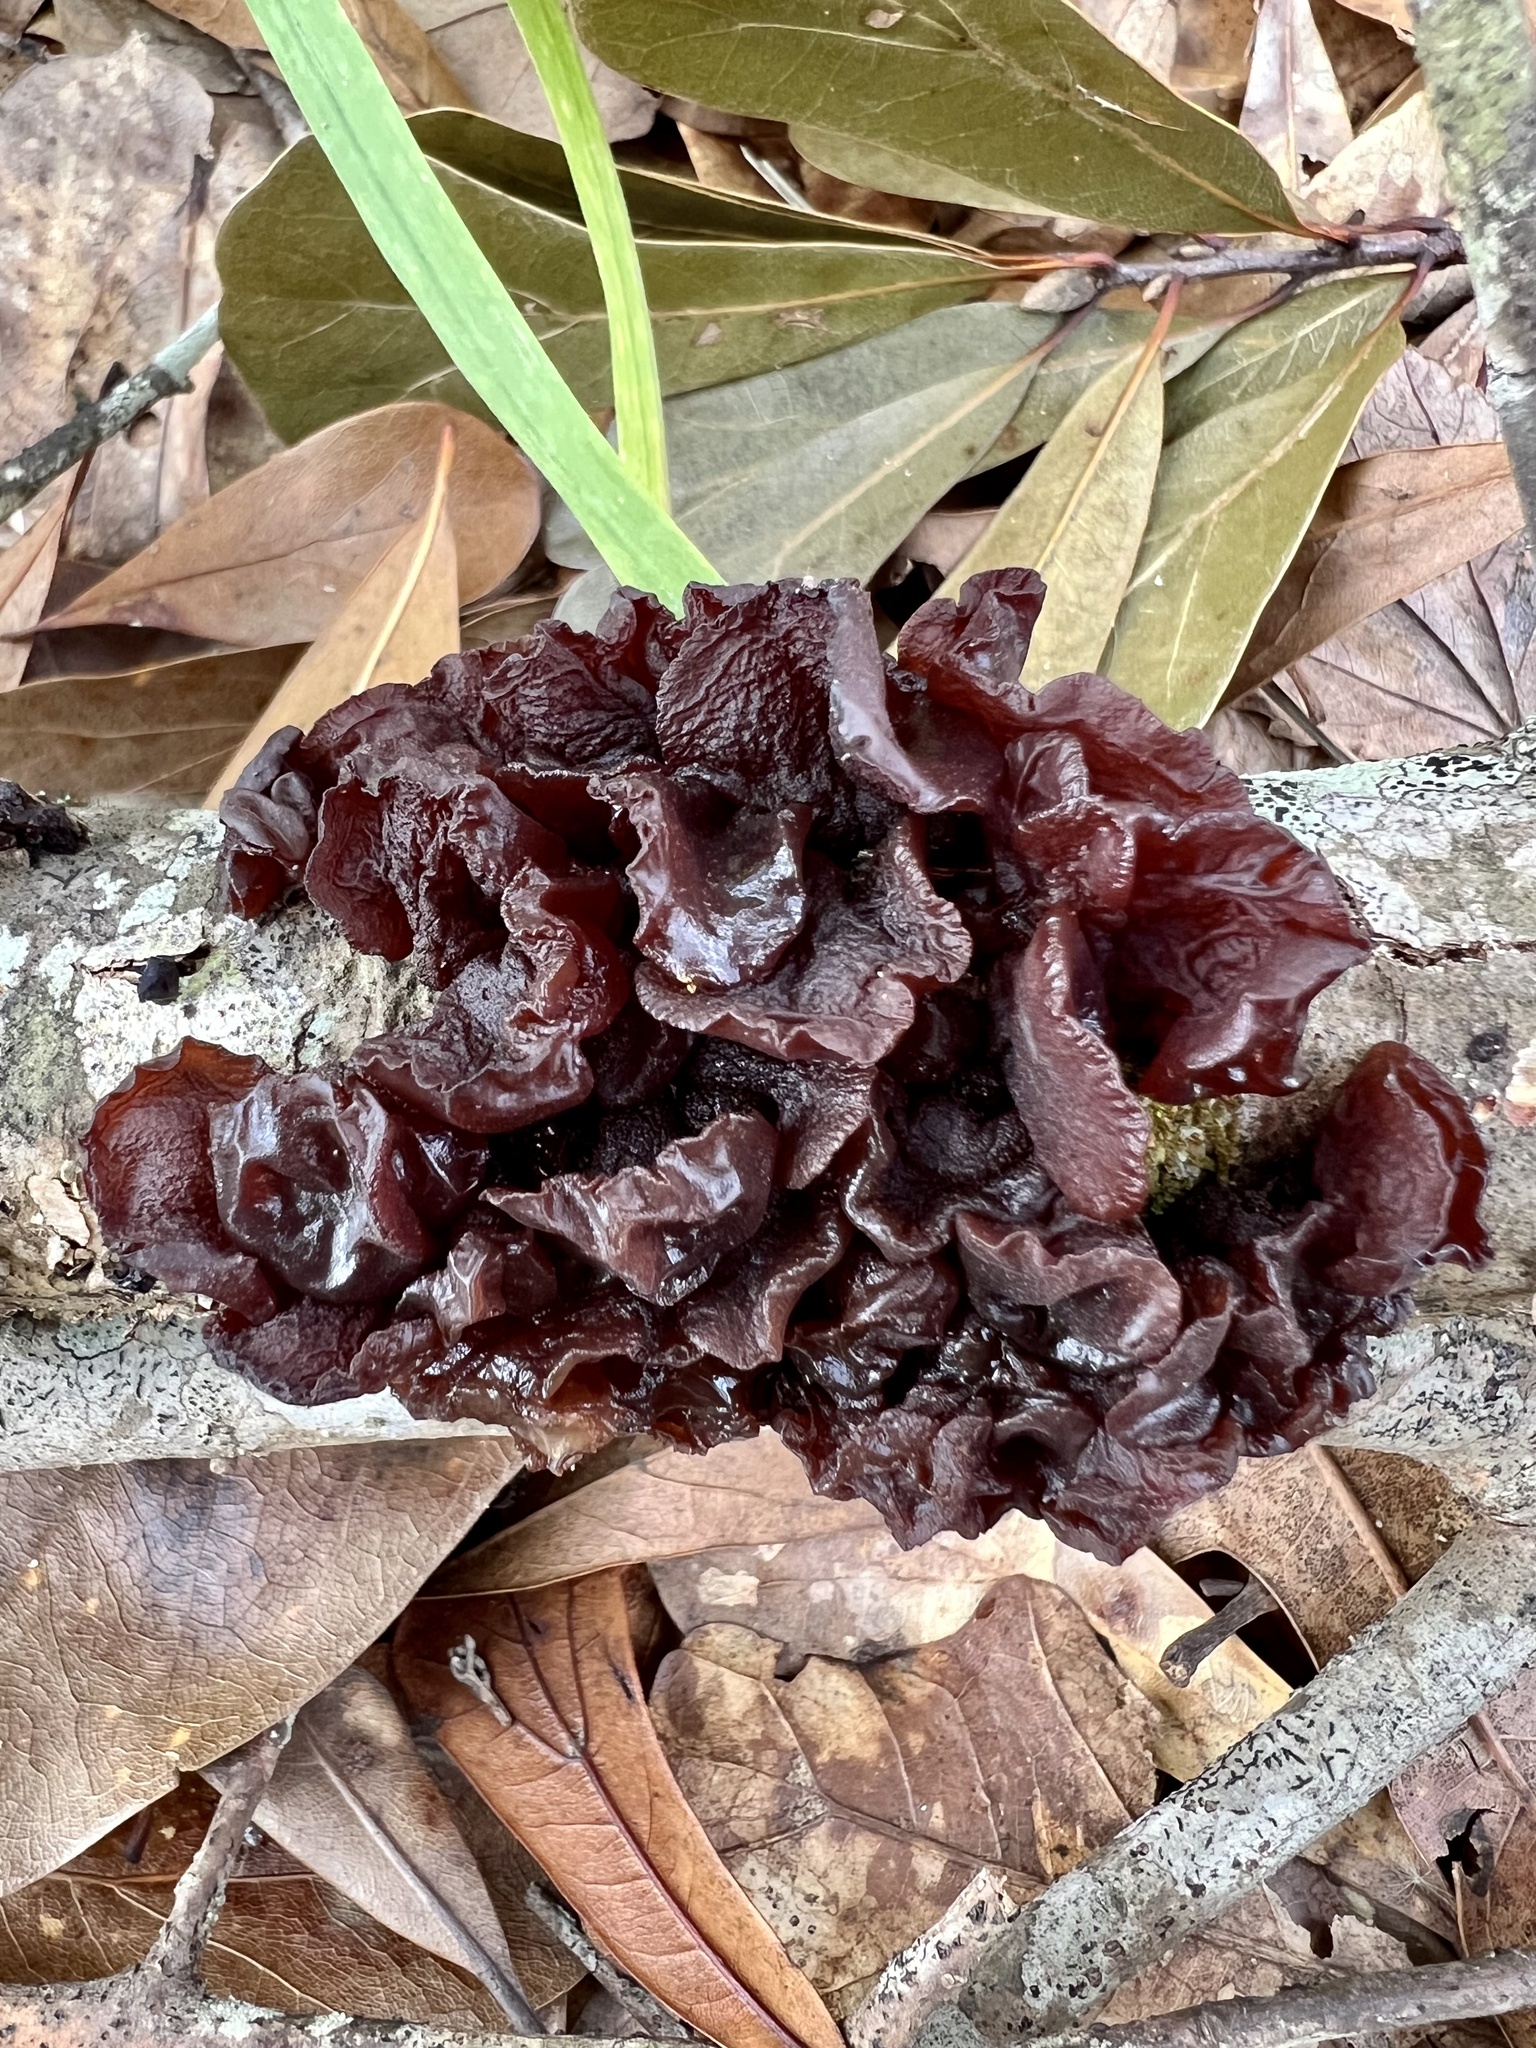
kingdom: Fungi
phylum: Basidiomycota
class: Agaricomycetes
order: Auriculariales
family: Auriculariaceae
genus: Exidia
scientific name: Exidia
